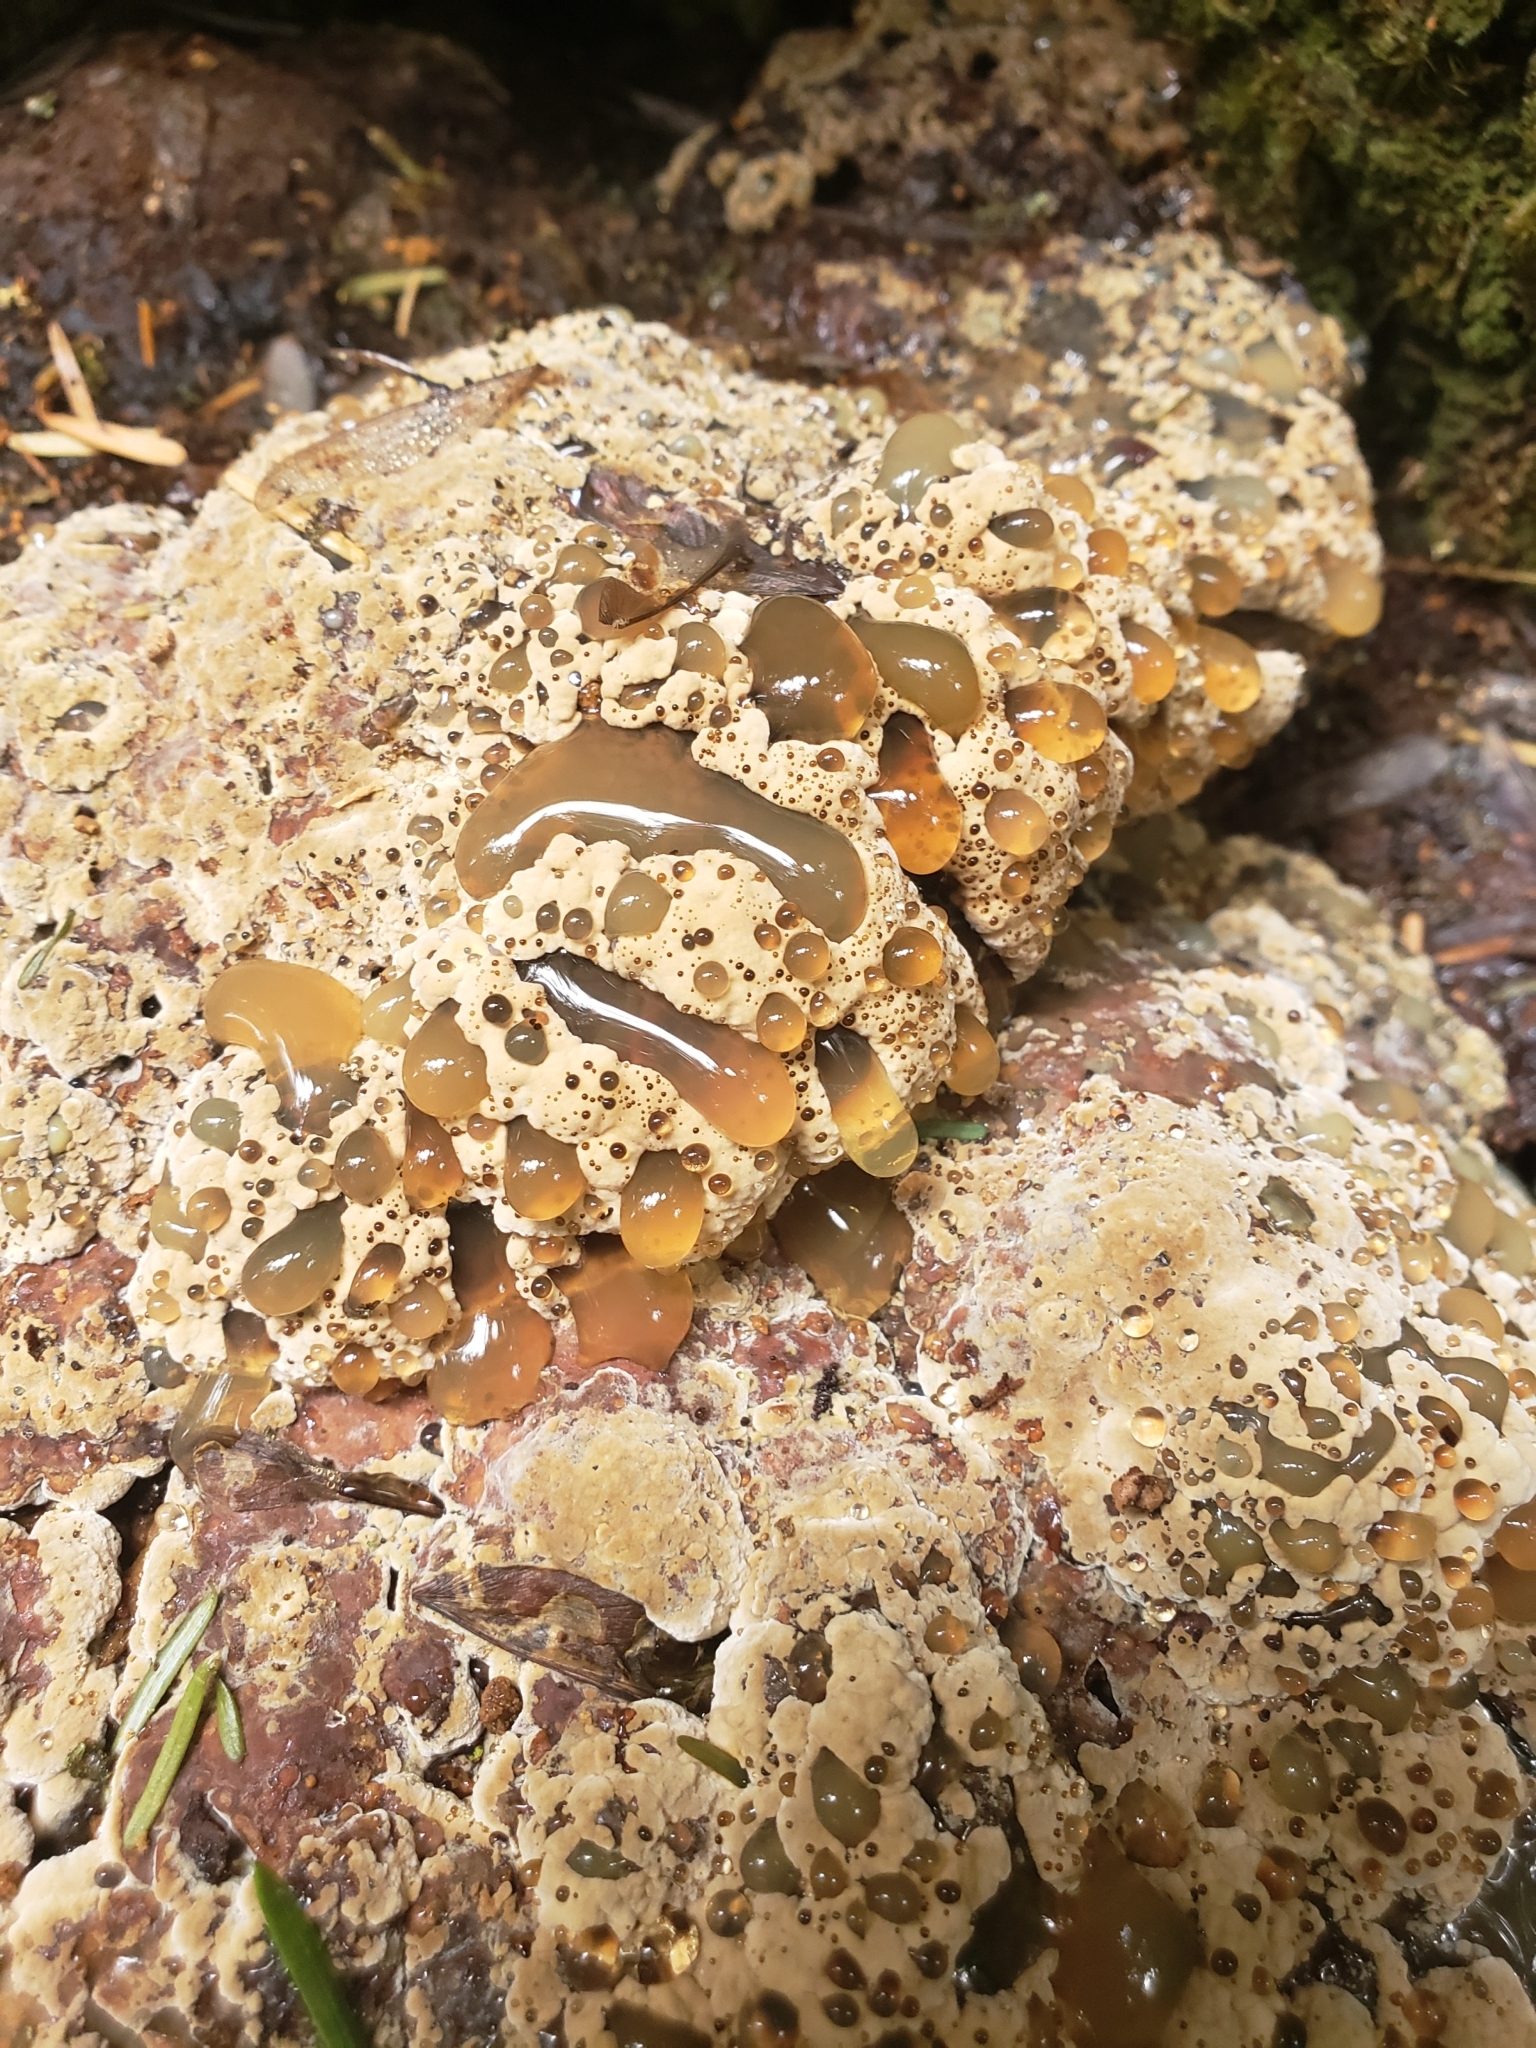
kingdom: Fungi
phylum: Basidiomycota
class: Agaricomycetes
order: Hymenochaetales
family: Hymenochaetaceae
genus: Pseudoinonotus
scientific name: Pseudoinonotus dryadeus
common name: Oak bracket
